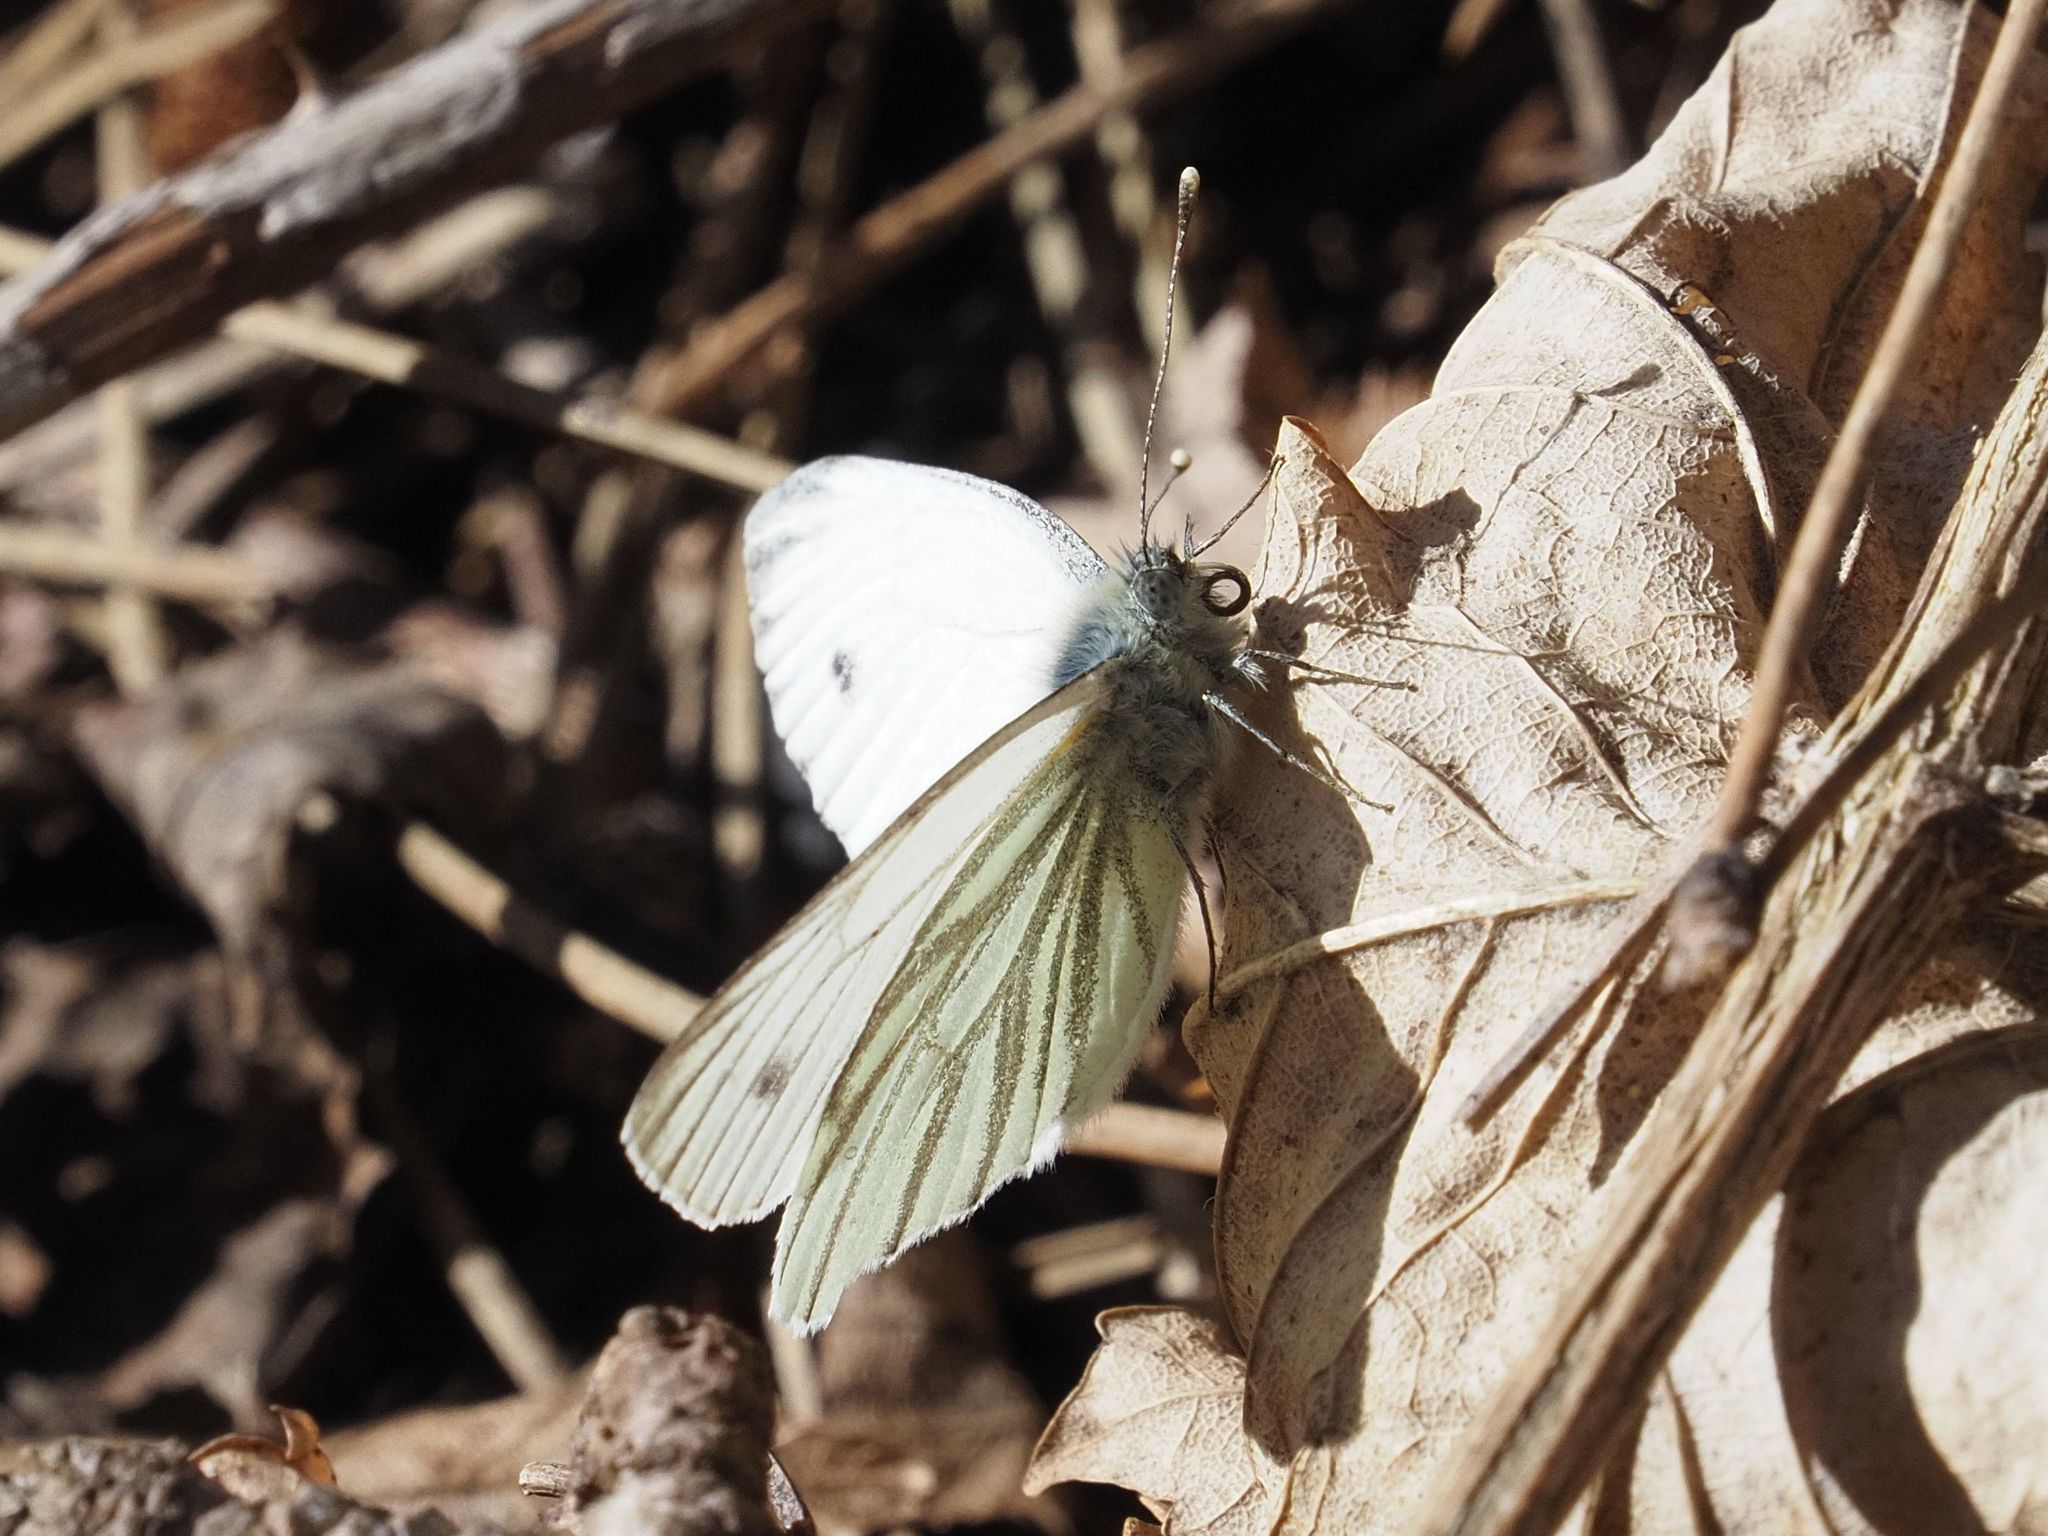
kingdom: Animalia
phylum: Arthropoda
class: Insecta
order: Lepidoptera
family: Pieridae
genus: Pieris
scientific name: Pieris napi
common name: Green-veined white
